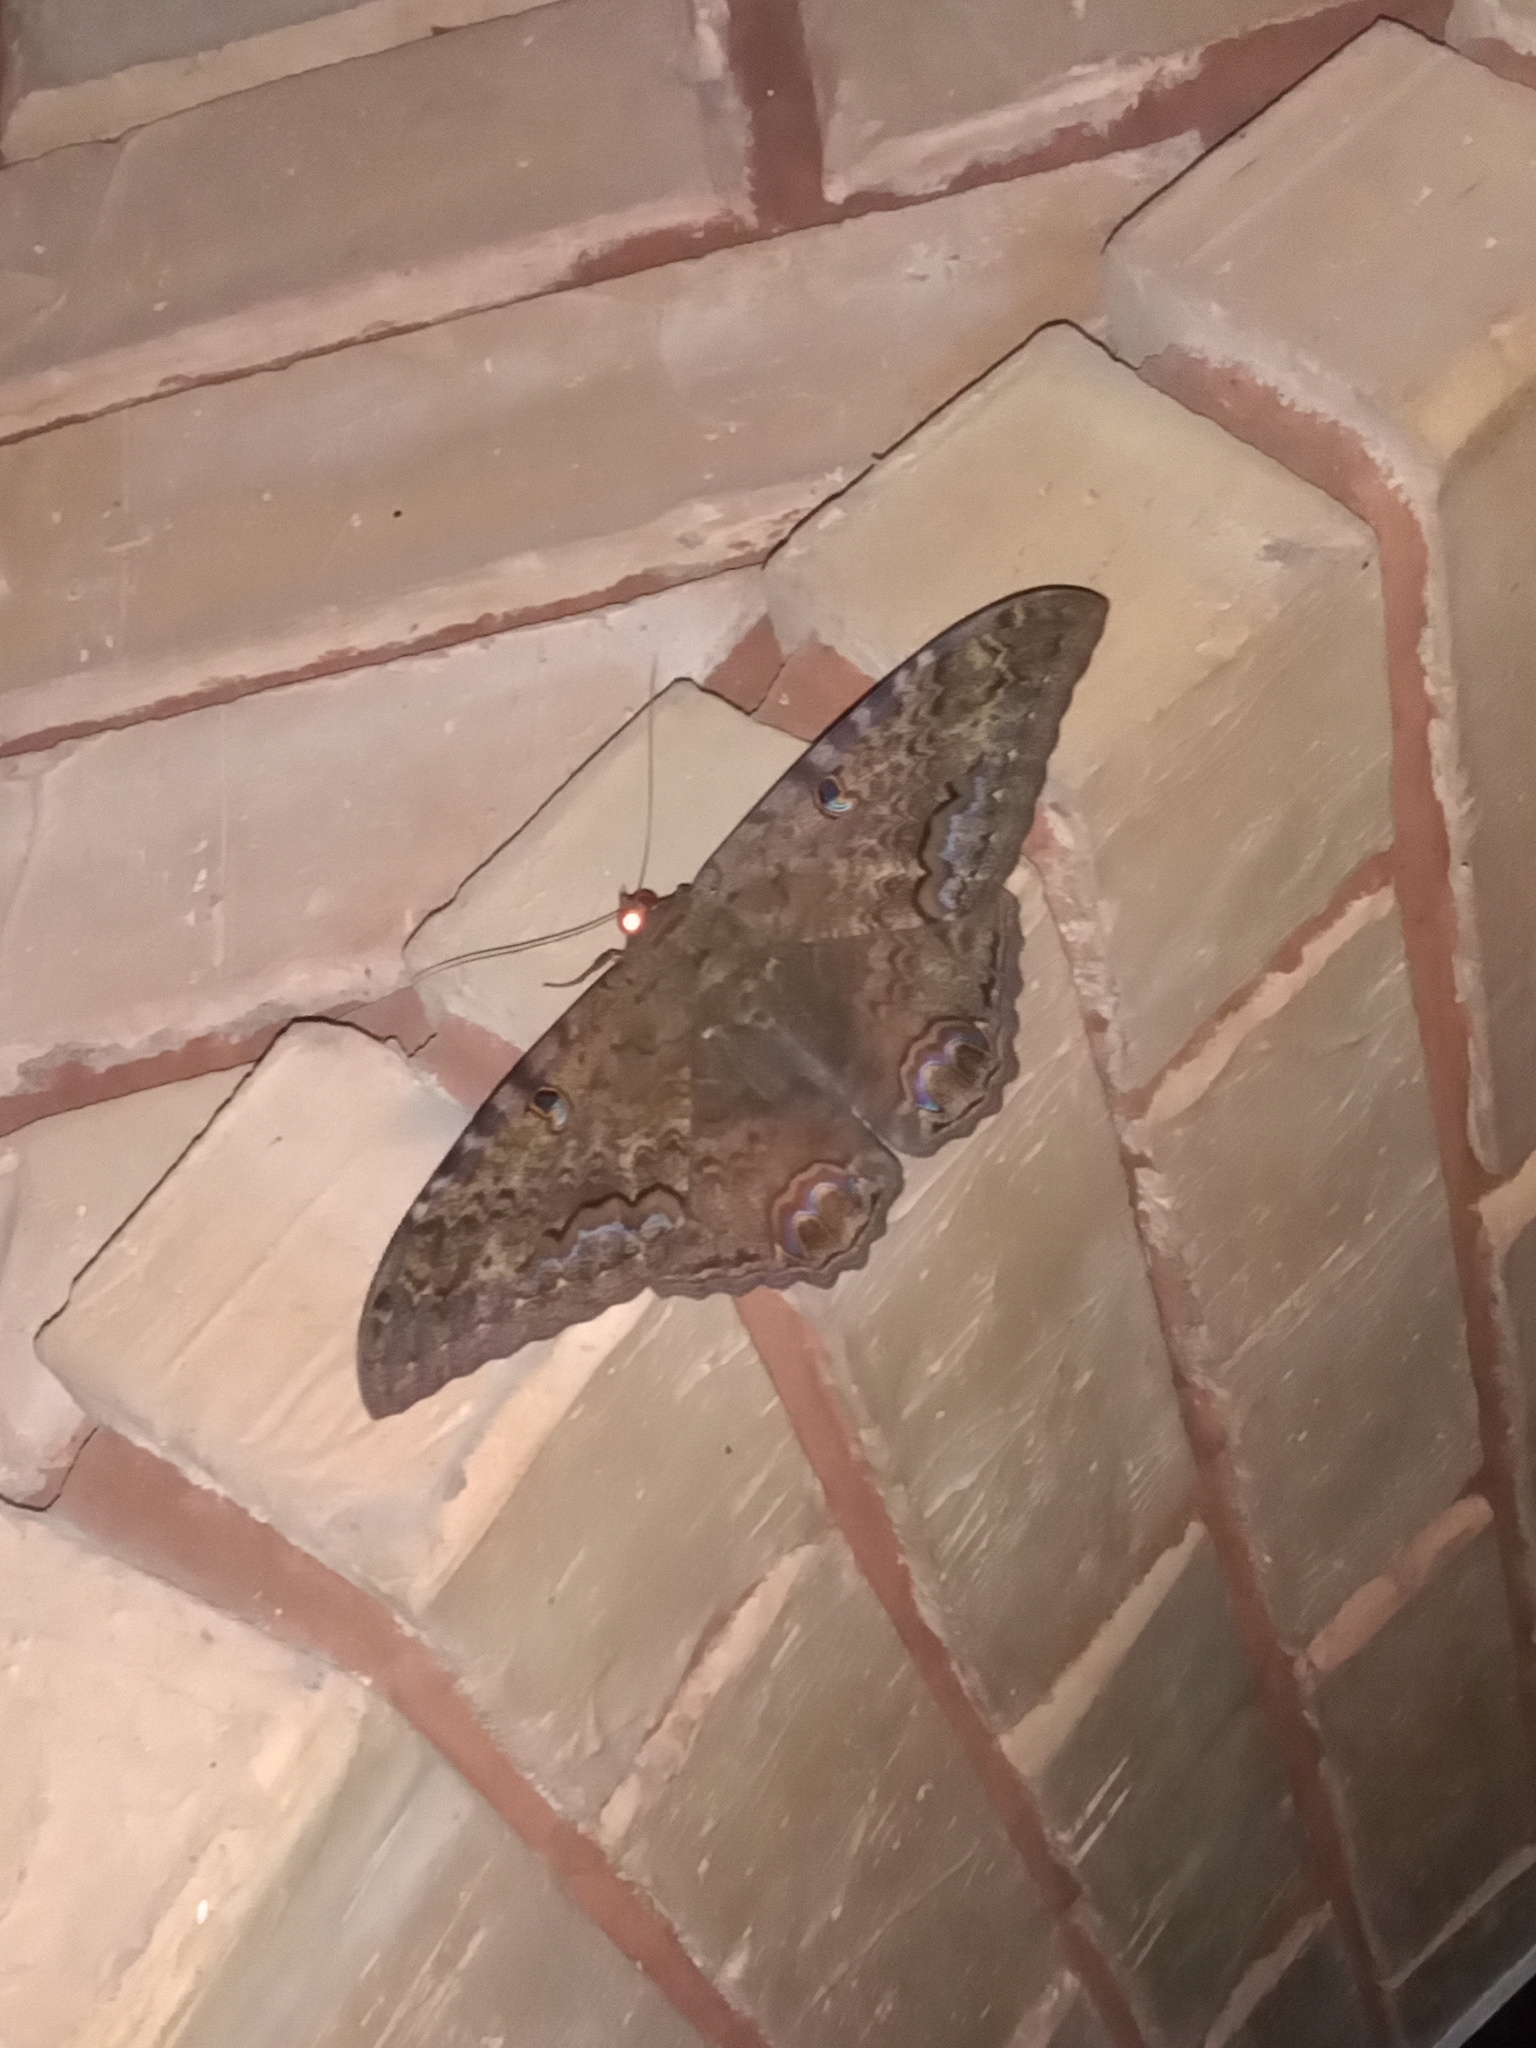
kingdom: Animalia
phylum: Arthropoda
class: Insecta
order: Lepidoptera
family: Erebidae
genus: Ascalapha
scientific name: Ascalapha odorata
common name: Black witch
